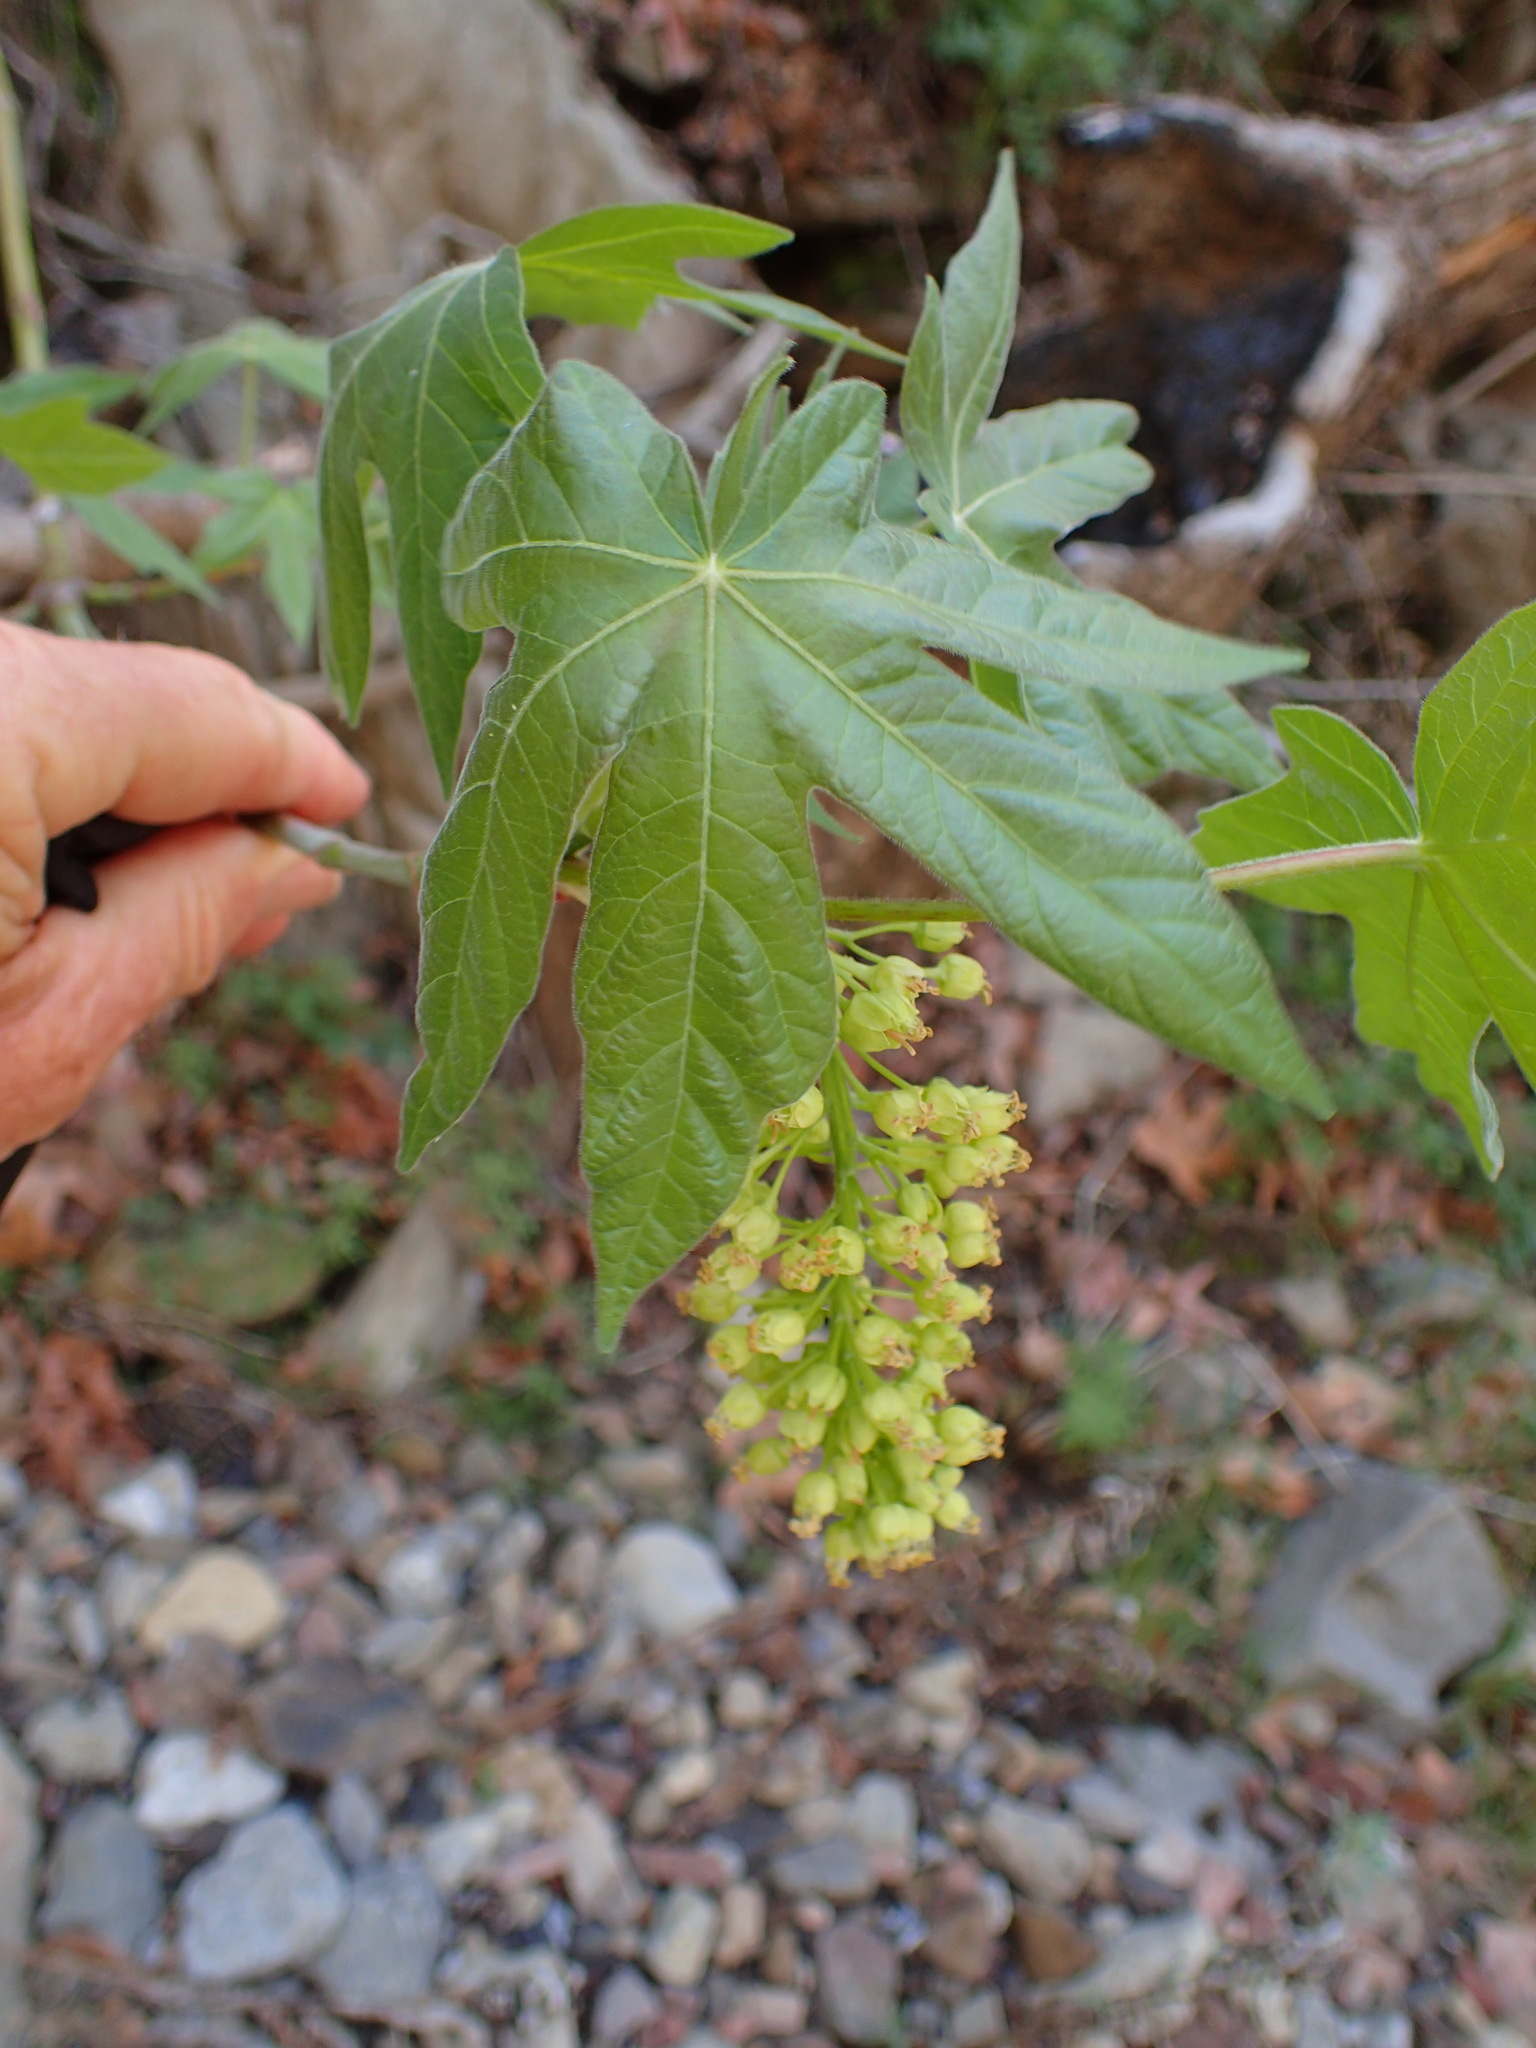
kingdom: Plantae
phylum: Tracheophyta
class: Magnoliopsida
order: Sapindales
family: Sapindaceae
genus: Acer
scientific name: Acer macrophyllum
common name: Oregon maple
